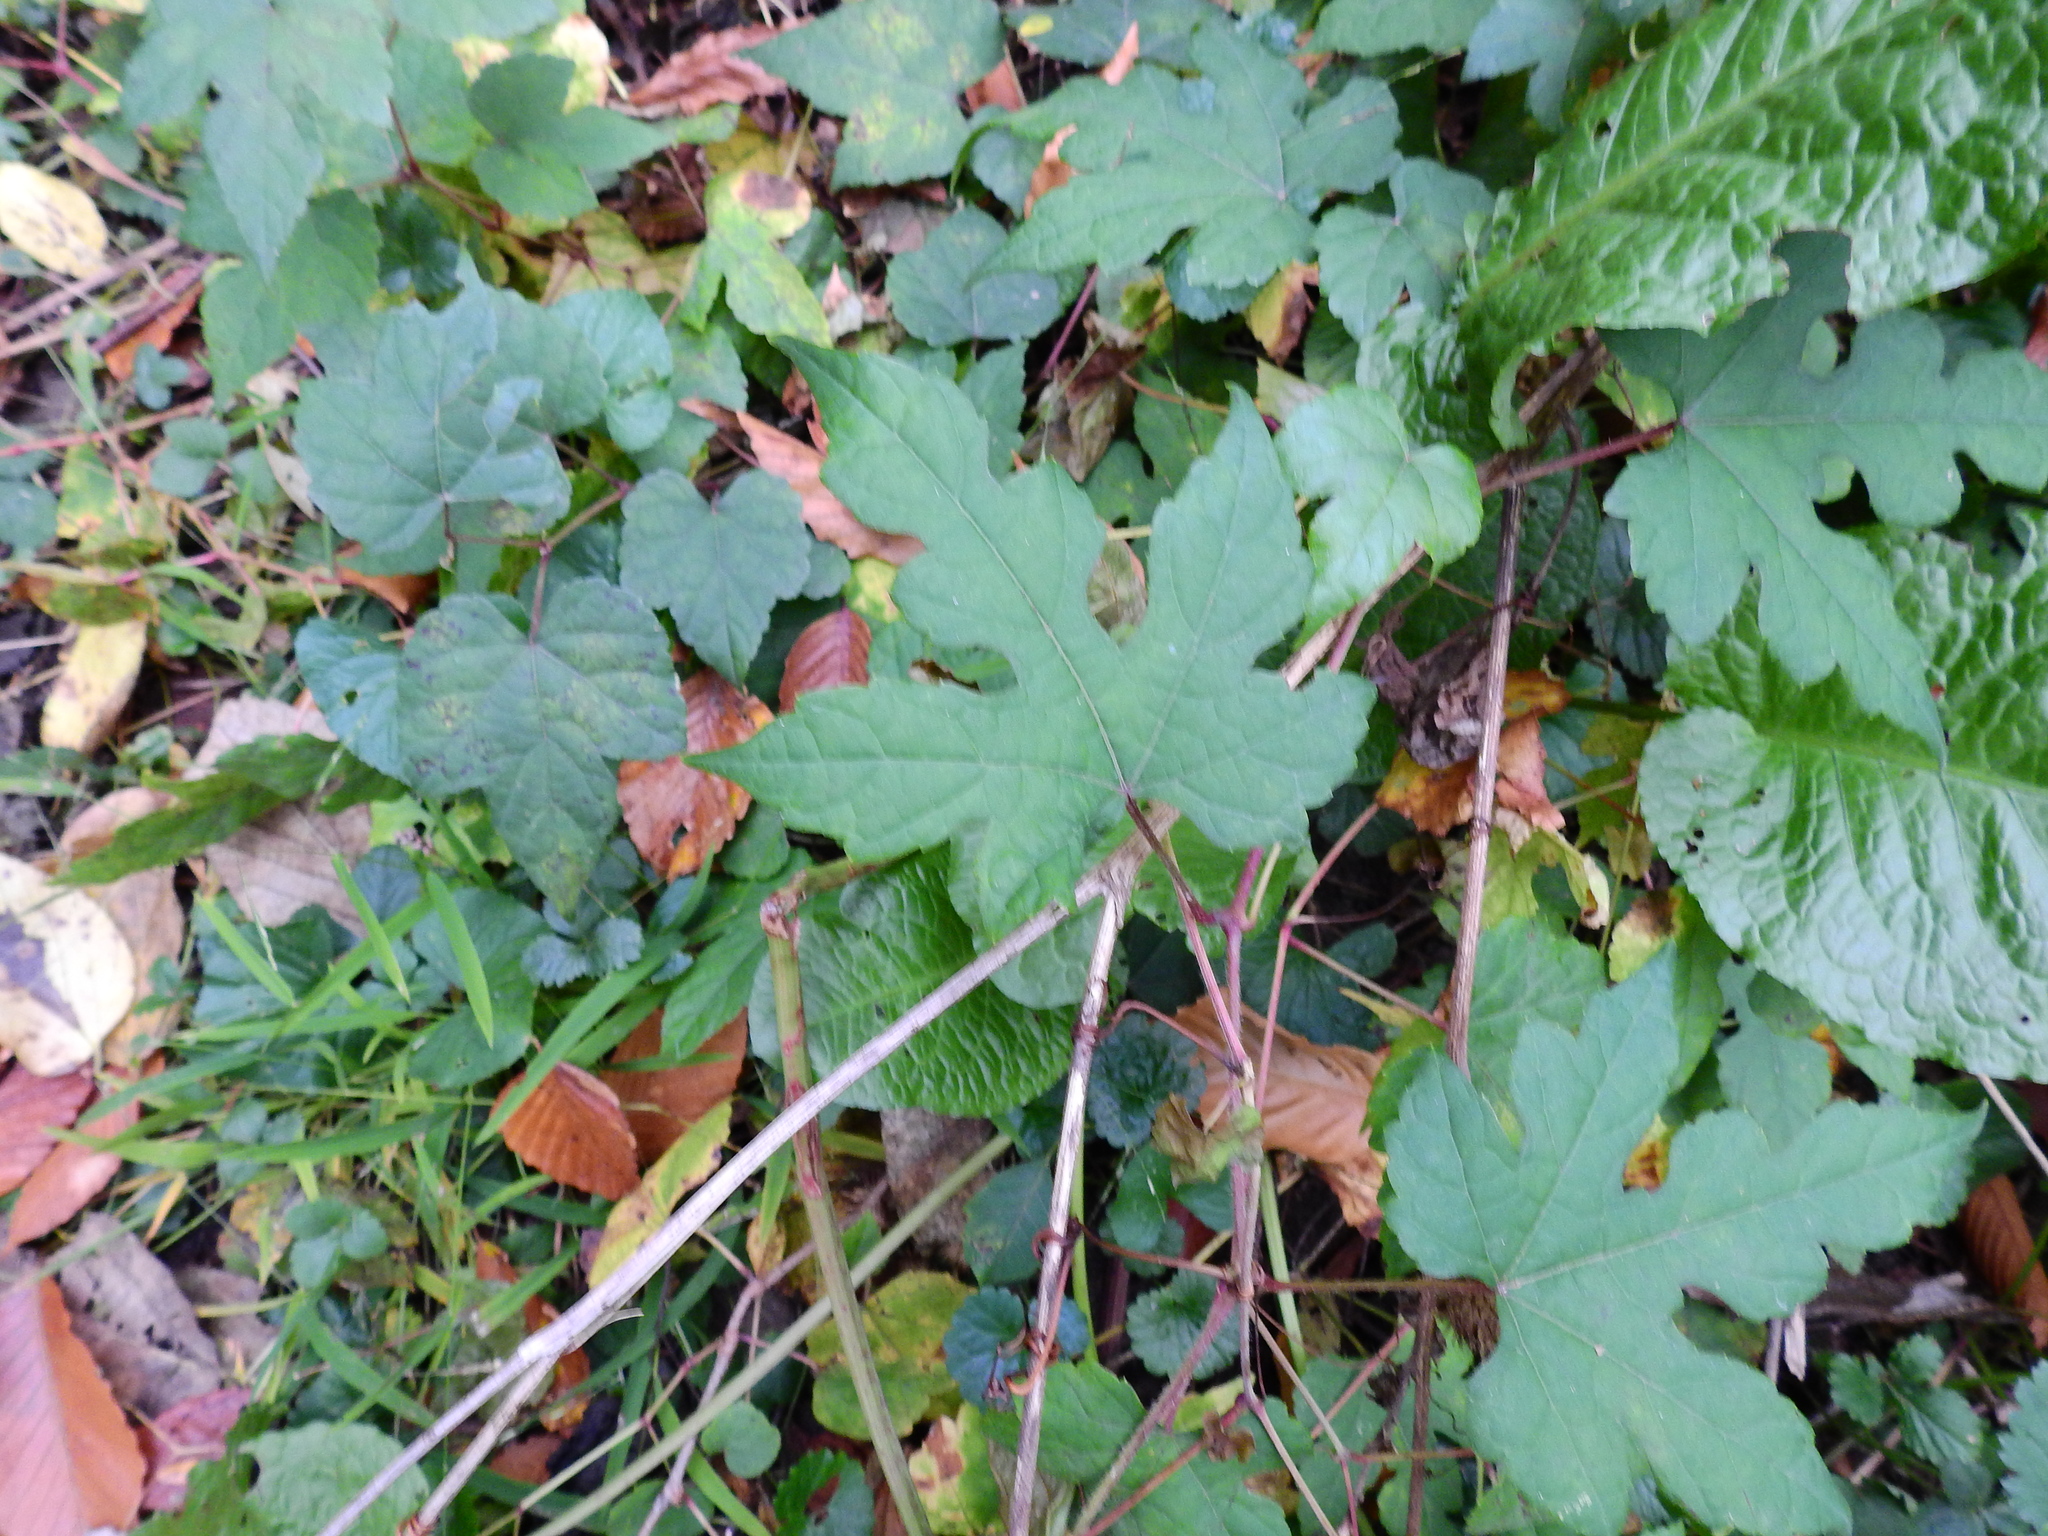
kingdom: Plantae
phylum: Tracheophyta
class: Magnoliopsida
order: Vitales
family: Vitaceae
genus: Ampelopsis
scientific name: Ampelopsis glandulosa
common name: Amur peppervine
